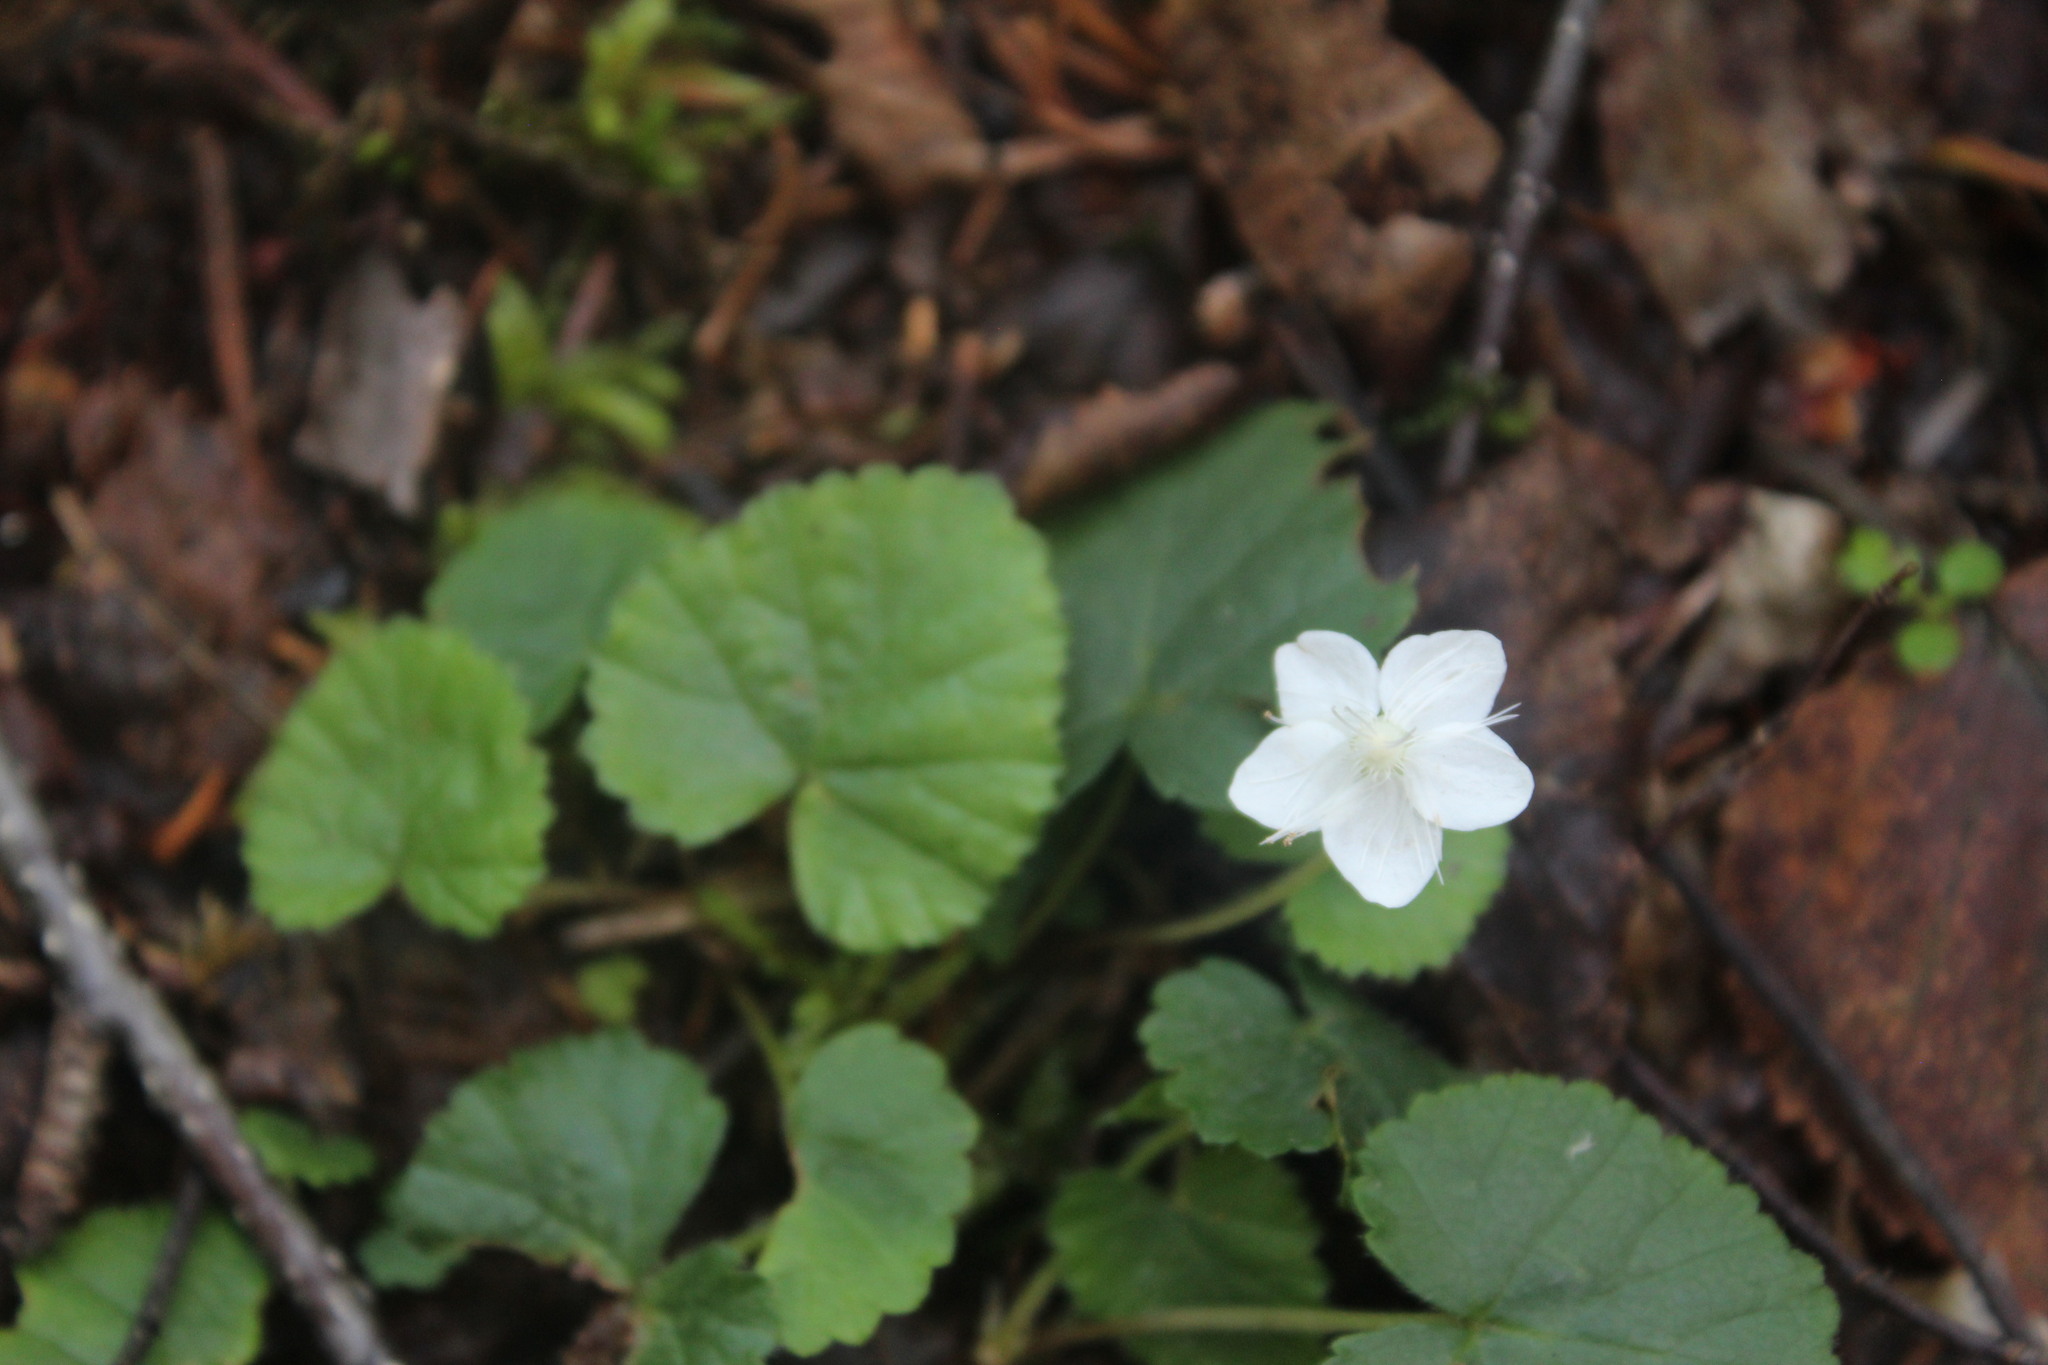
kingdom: Plantae
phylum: Tracheophyta
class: Magnoliopsida
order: Rosales
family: Rosaceae
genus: Dalibarda
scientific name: Dalibarda repens
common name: Dewdrop
